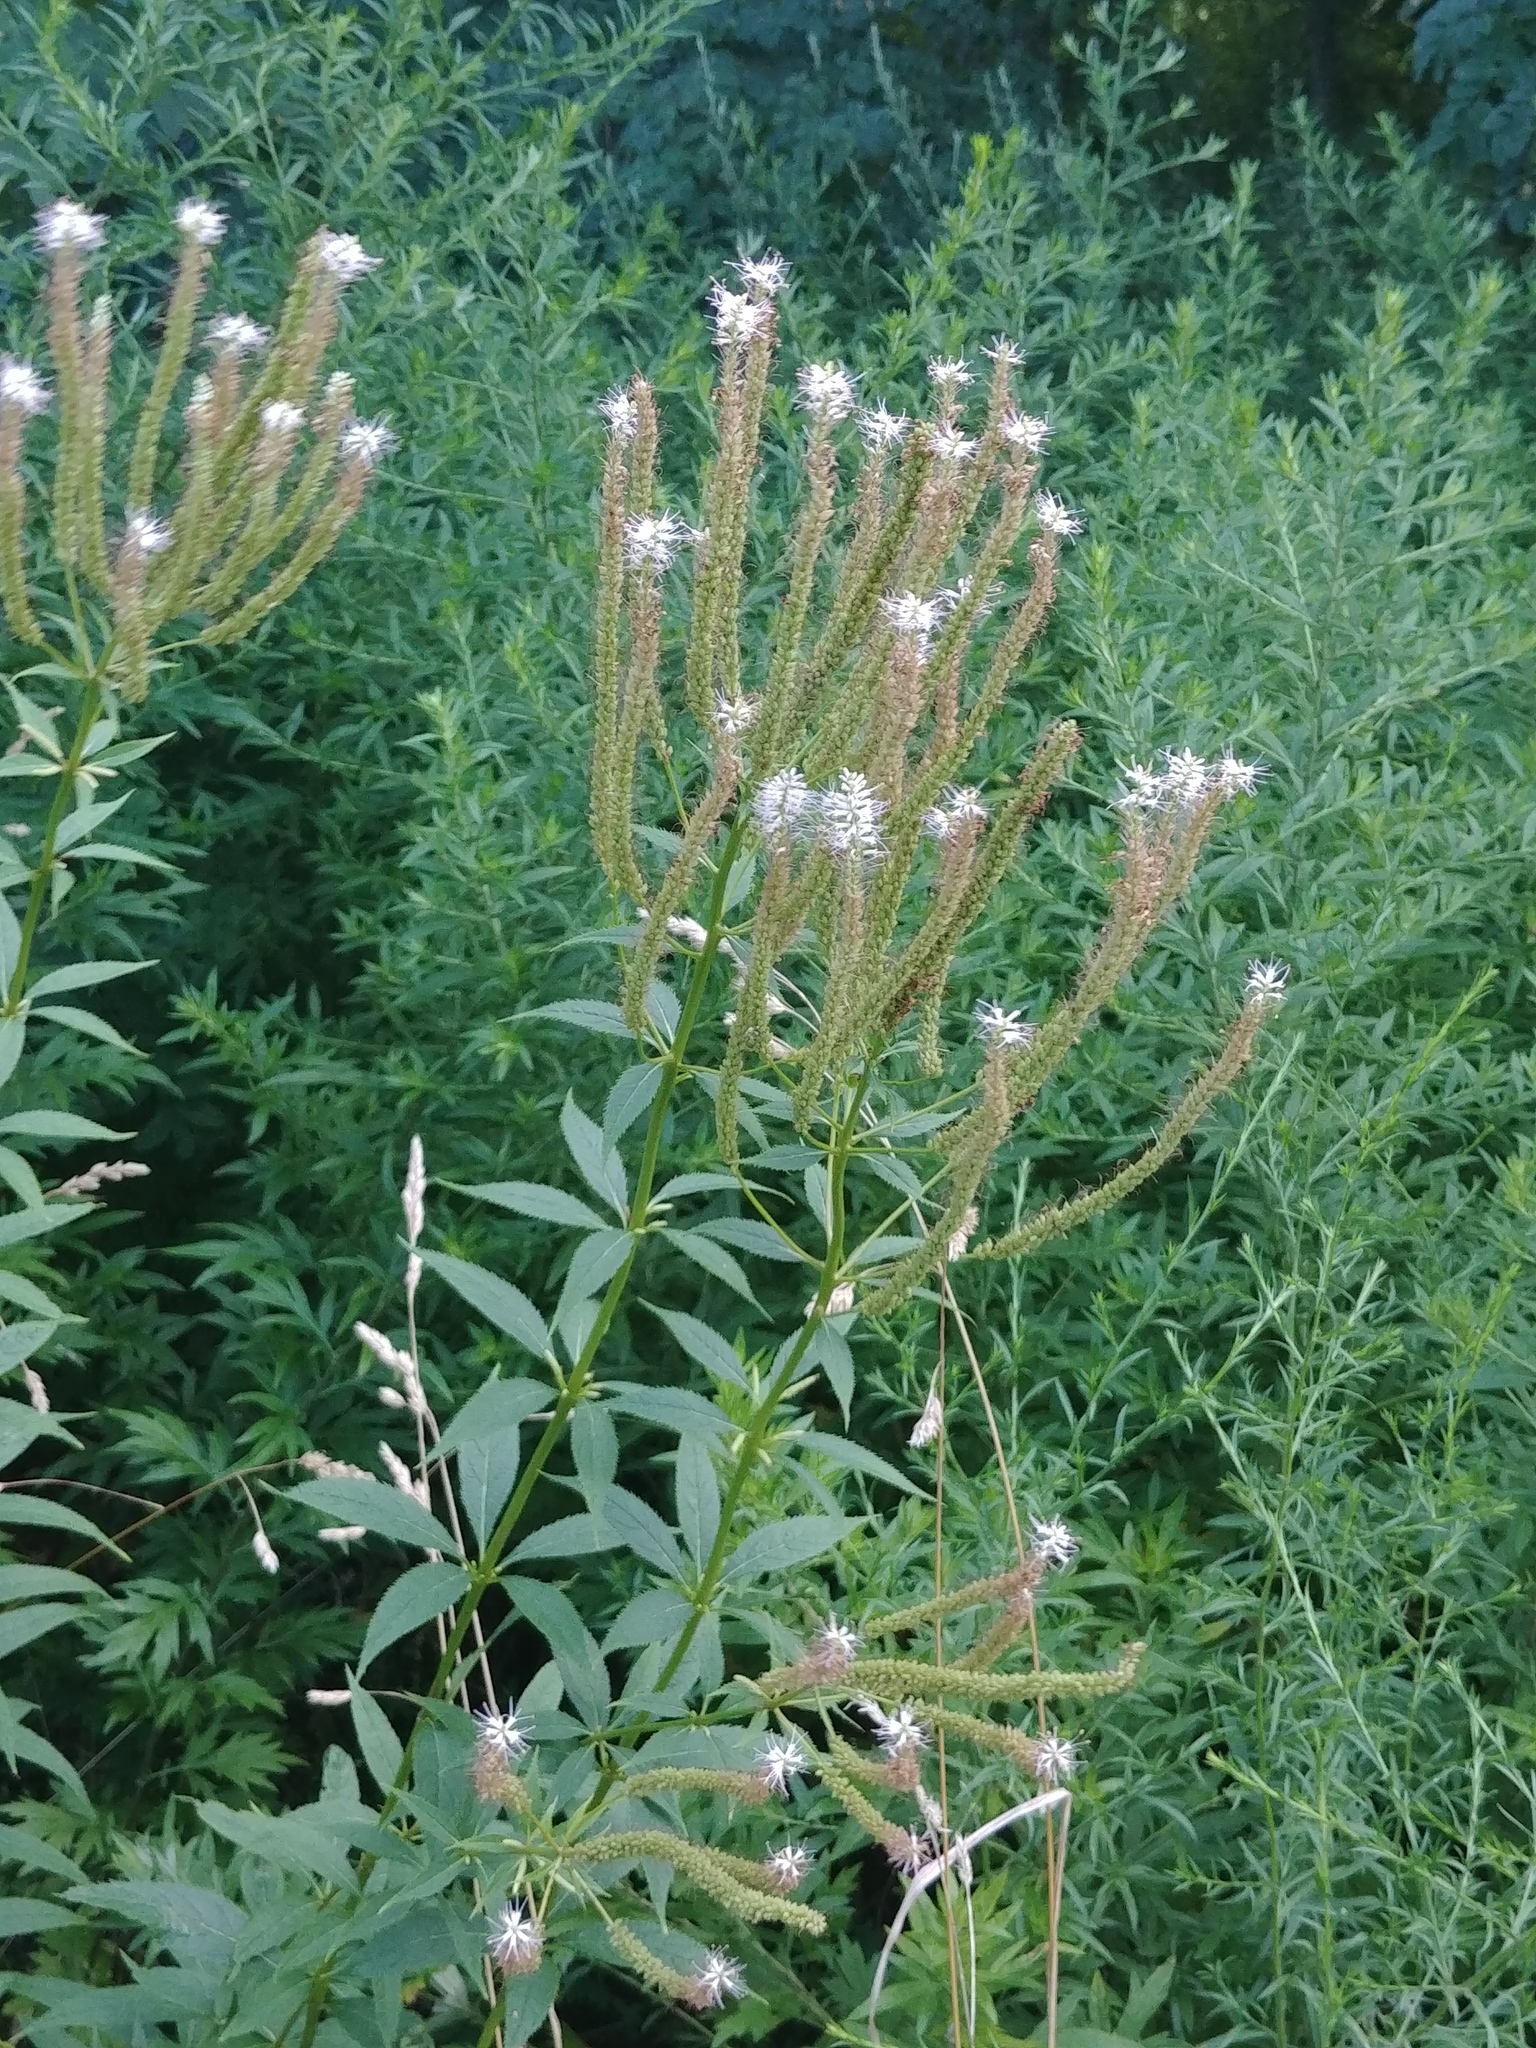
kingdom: Plantae
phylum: Tracheophyta
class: Magnoliopsida
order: Lamiales
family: Plantaginaceae
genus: Veronicastrum
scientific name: Veronicastrum virginicum
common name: Blackroot
